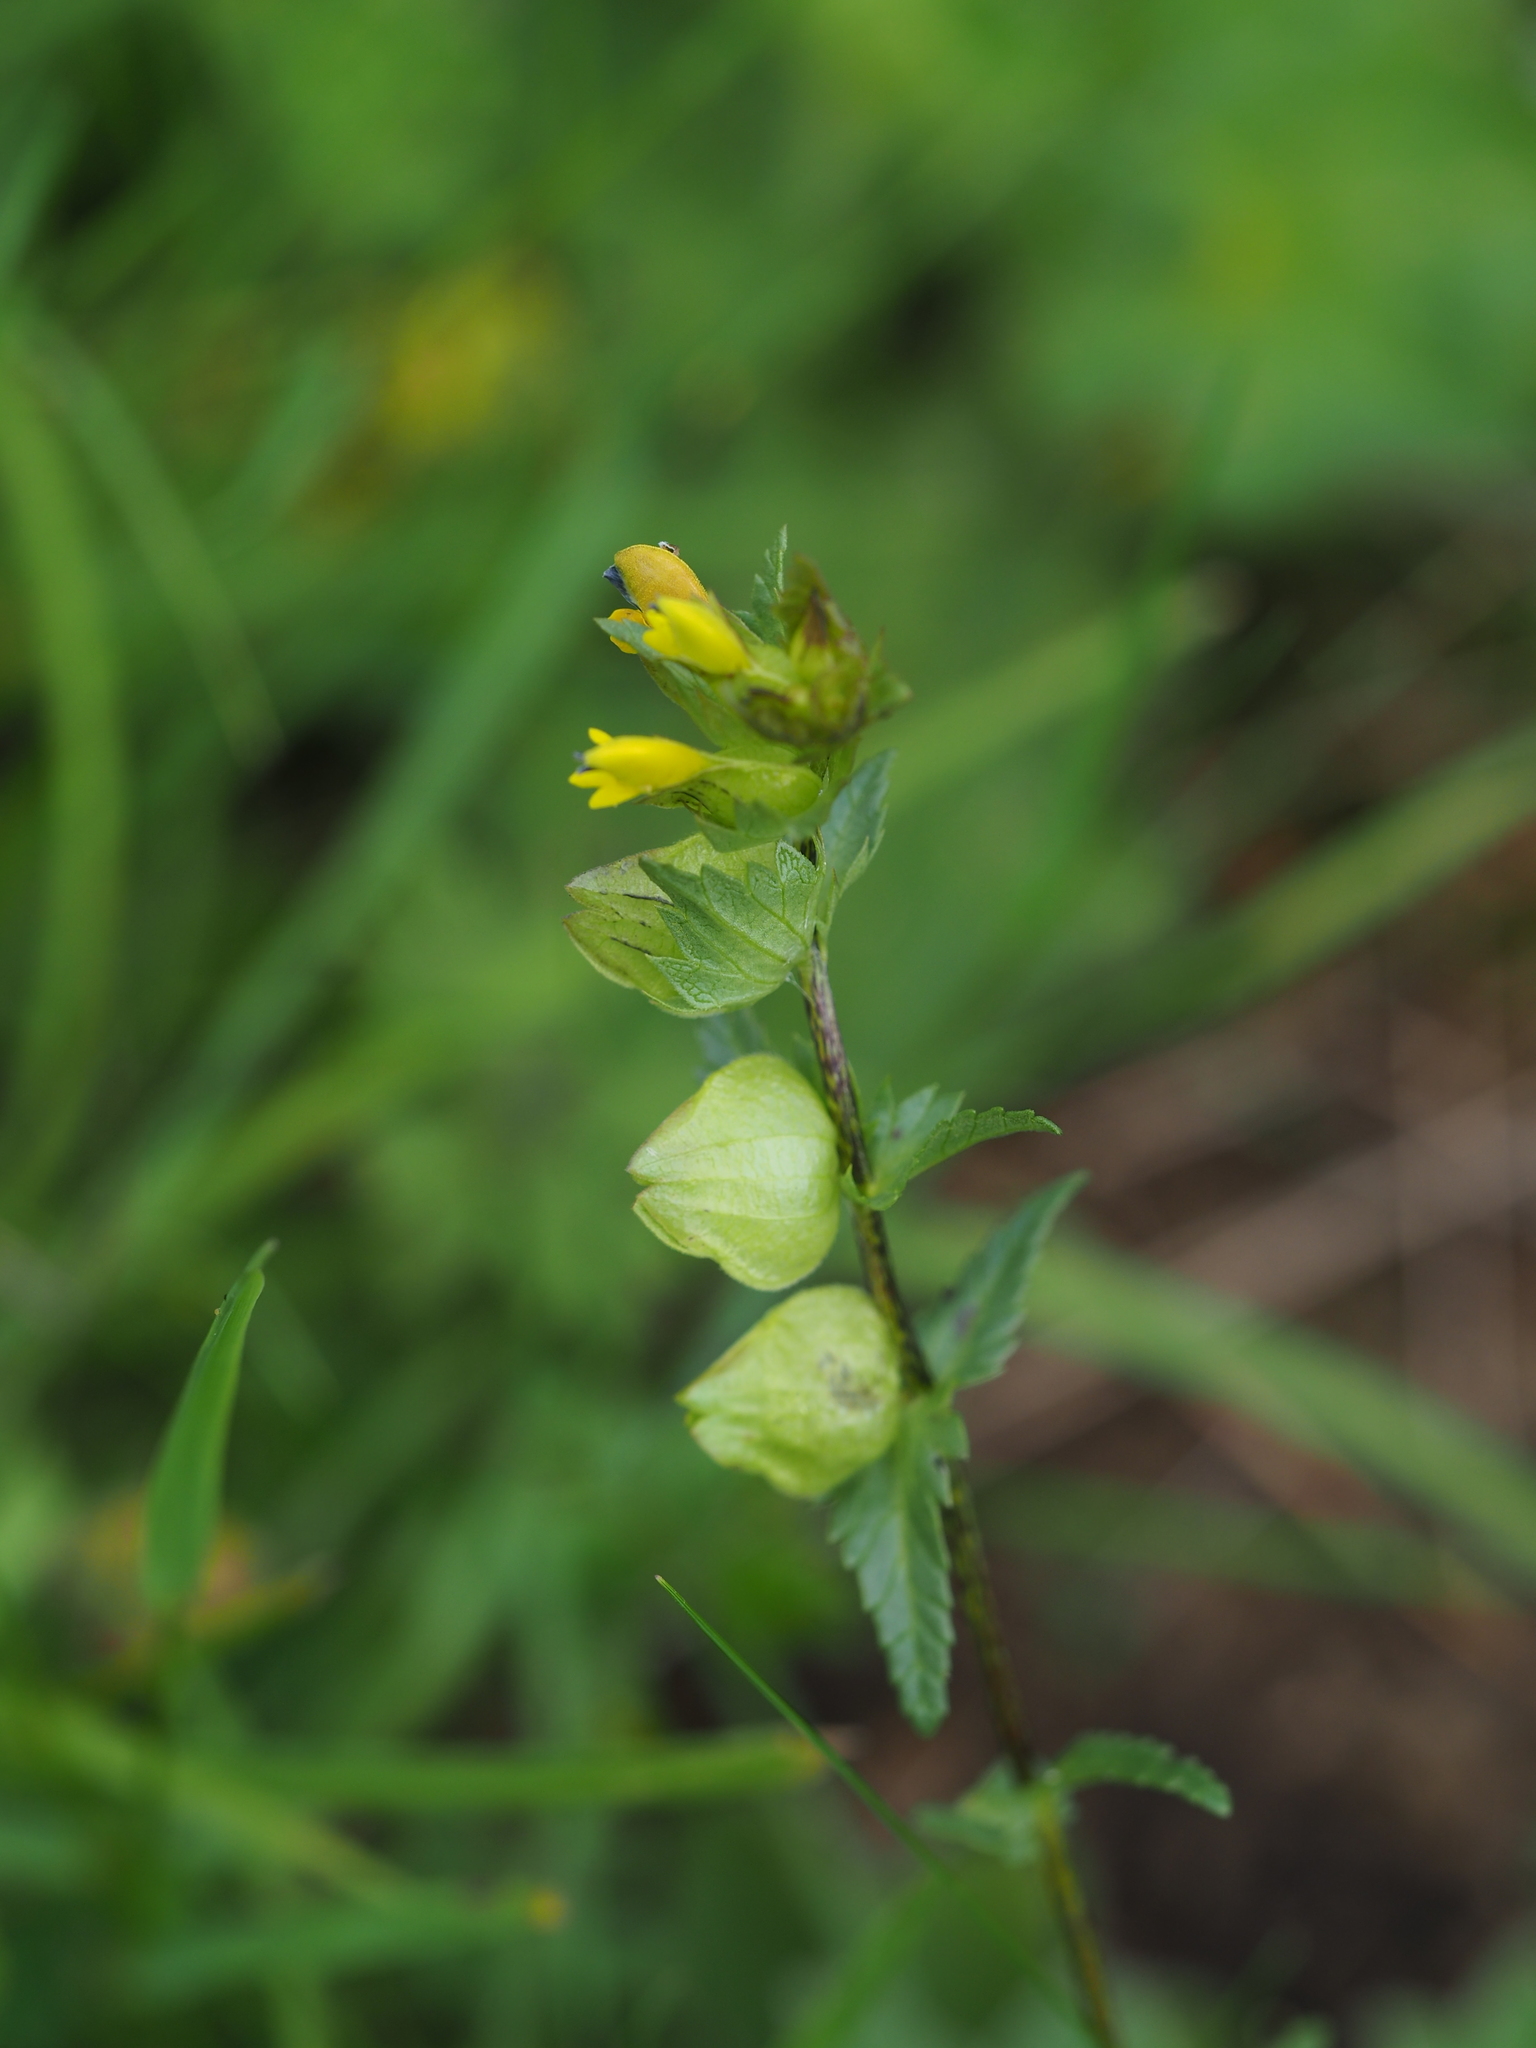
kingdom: Plantae
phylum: Tracheophyta
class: Magnoliopsida
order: Lamiales
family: Orobanchaceae
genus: Rhinanthus
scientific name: Rhinanthus serotinus
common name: Late-flowering yellow rattle
